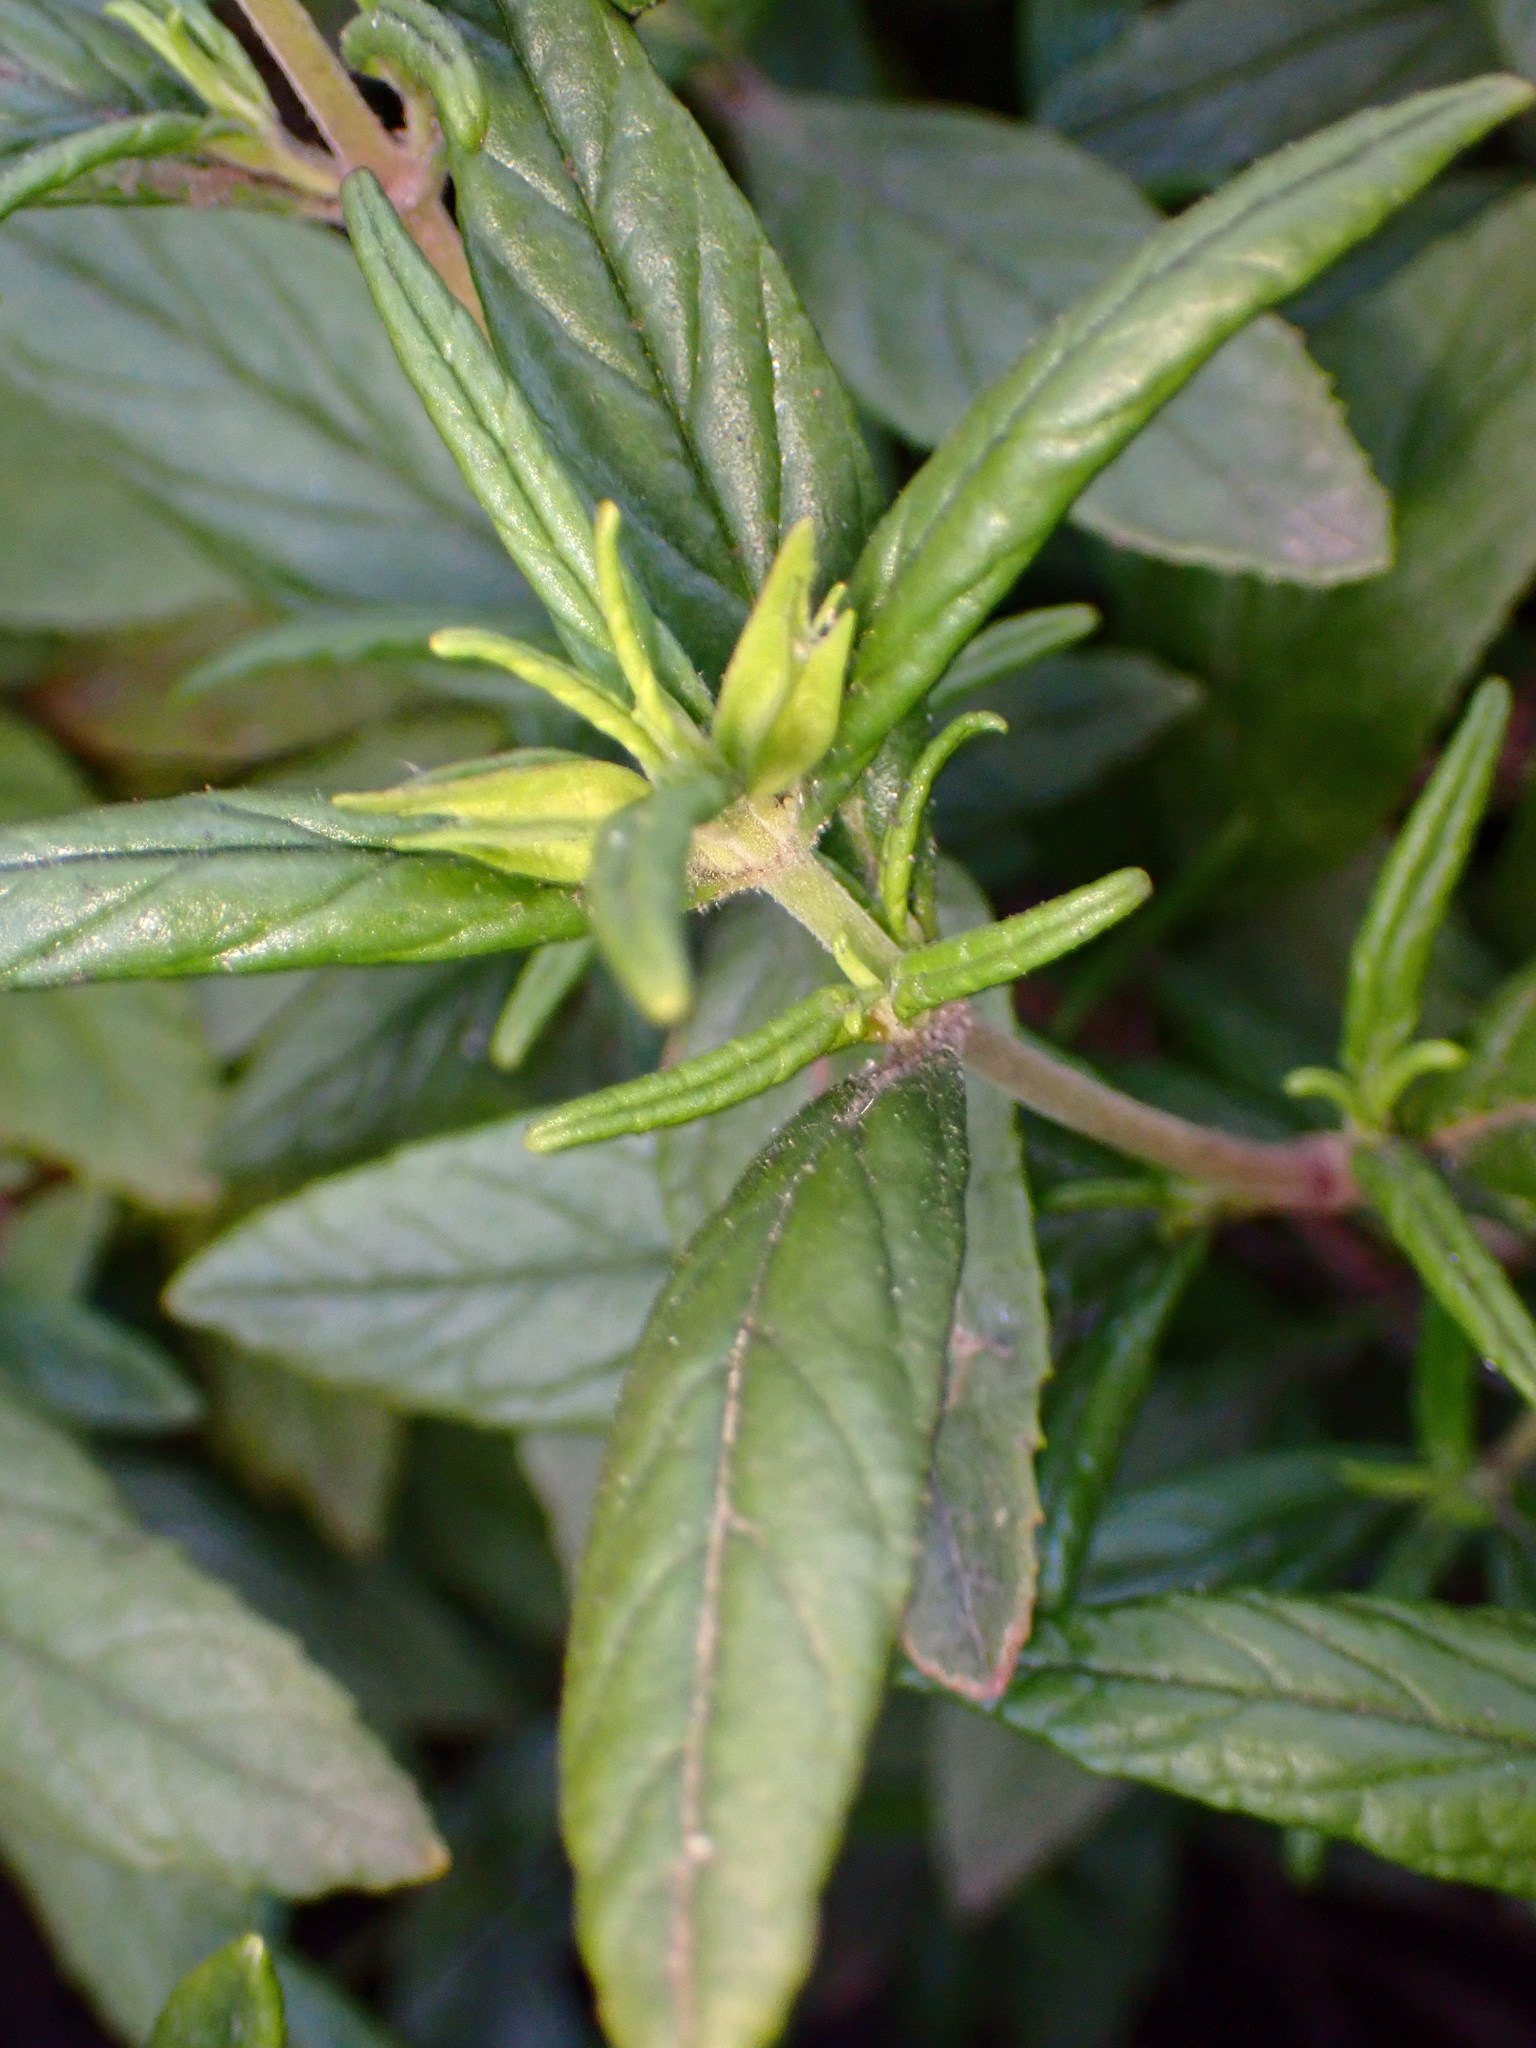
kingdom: Plantae
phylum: Tracheophyta
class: Magnoliopsida
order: Lamiales
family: Phrymaceae
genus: Diplacus
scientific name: Diplacus aurantiacus
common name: Bush monkey-flower
